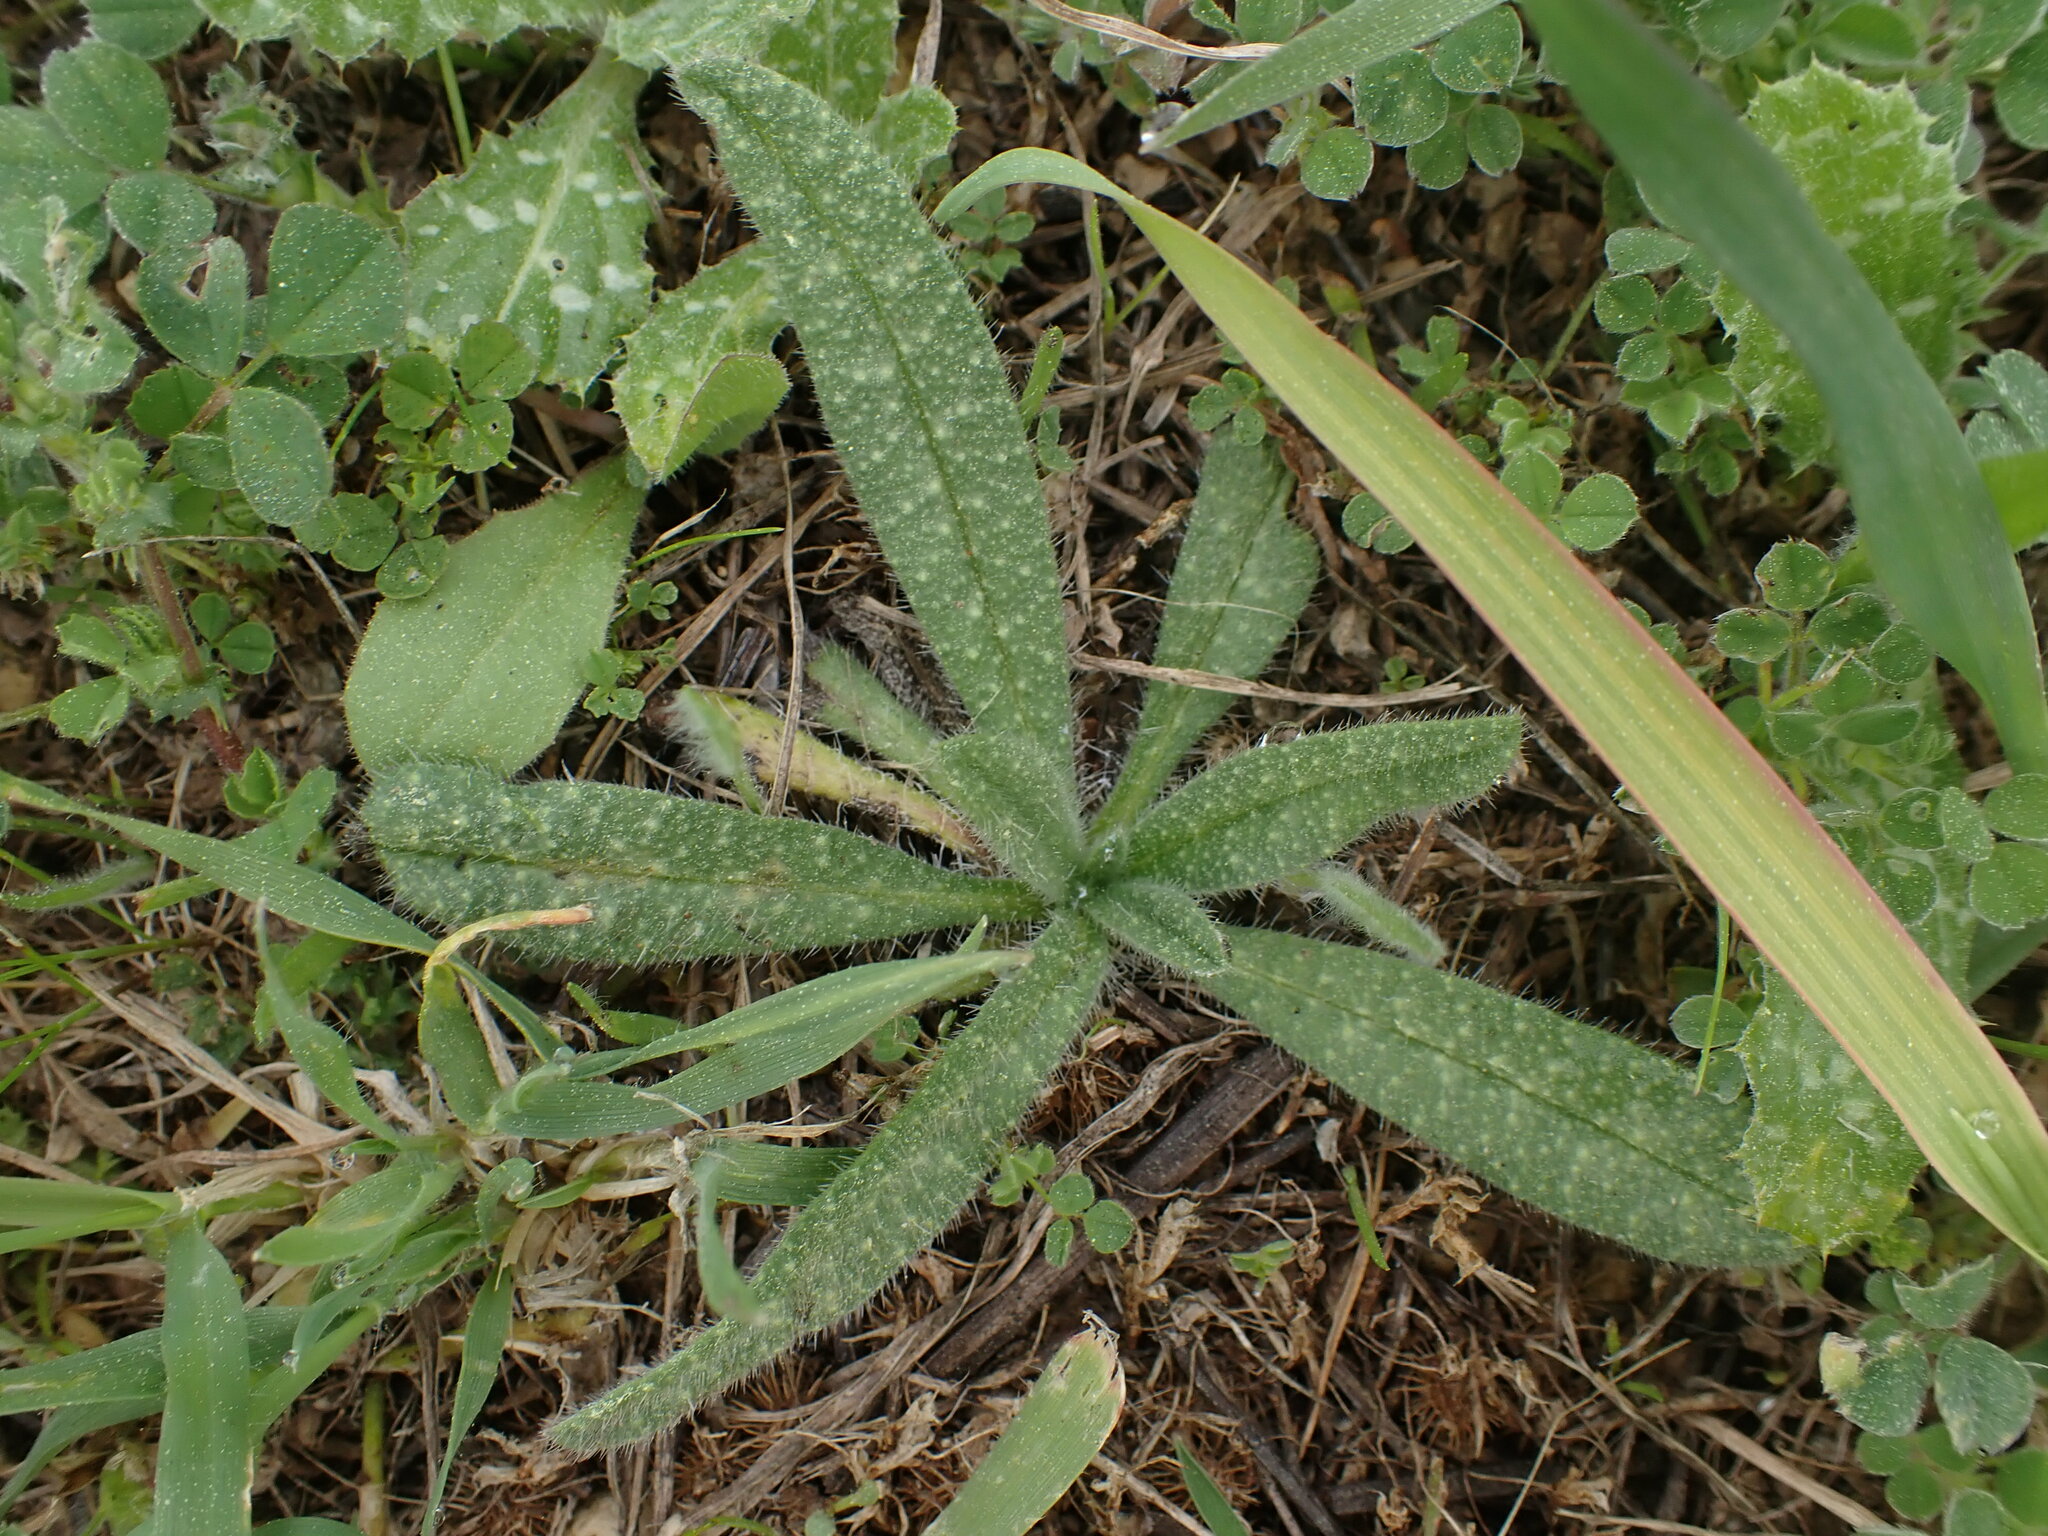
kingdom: Plantae
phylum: Tracheophyta
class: Magnoliopsida
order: Boraginales
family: Boraginaceae
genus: Echium
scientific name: Echium vulgare
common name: Common viper's bugloss
